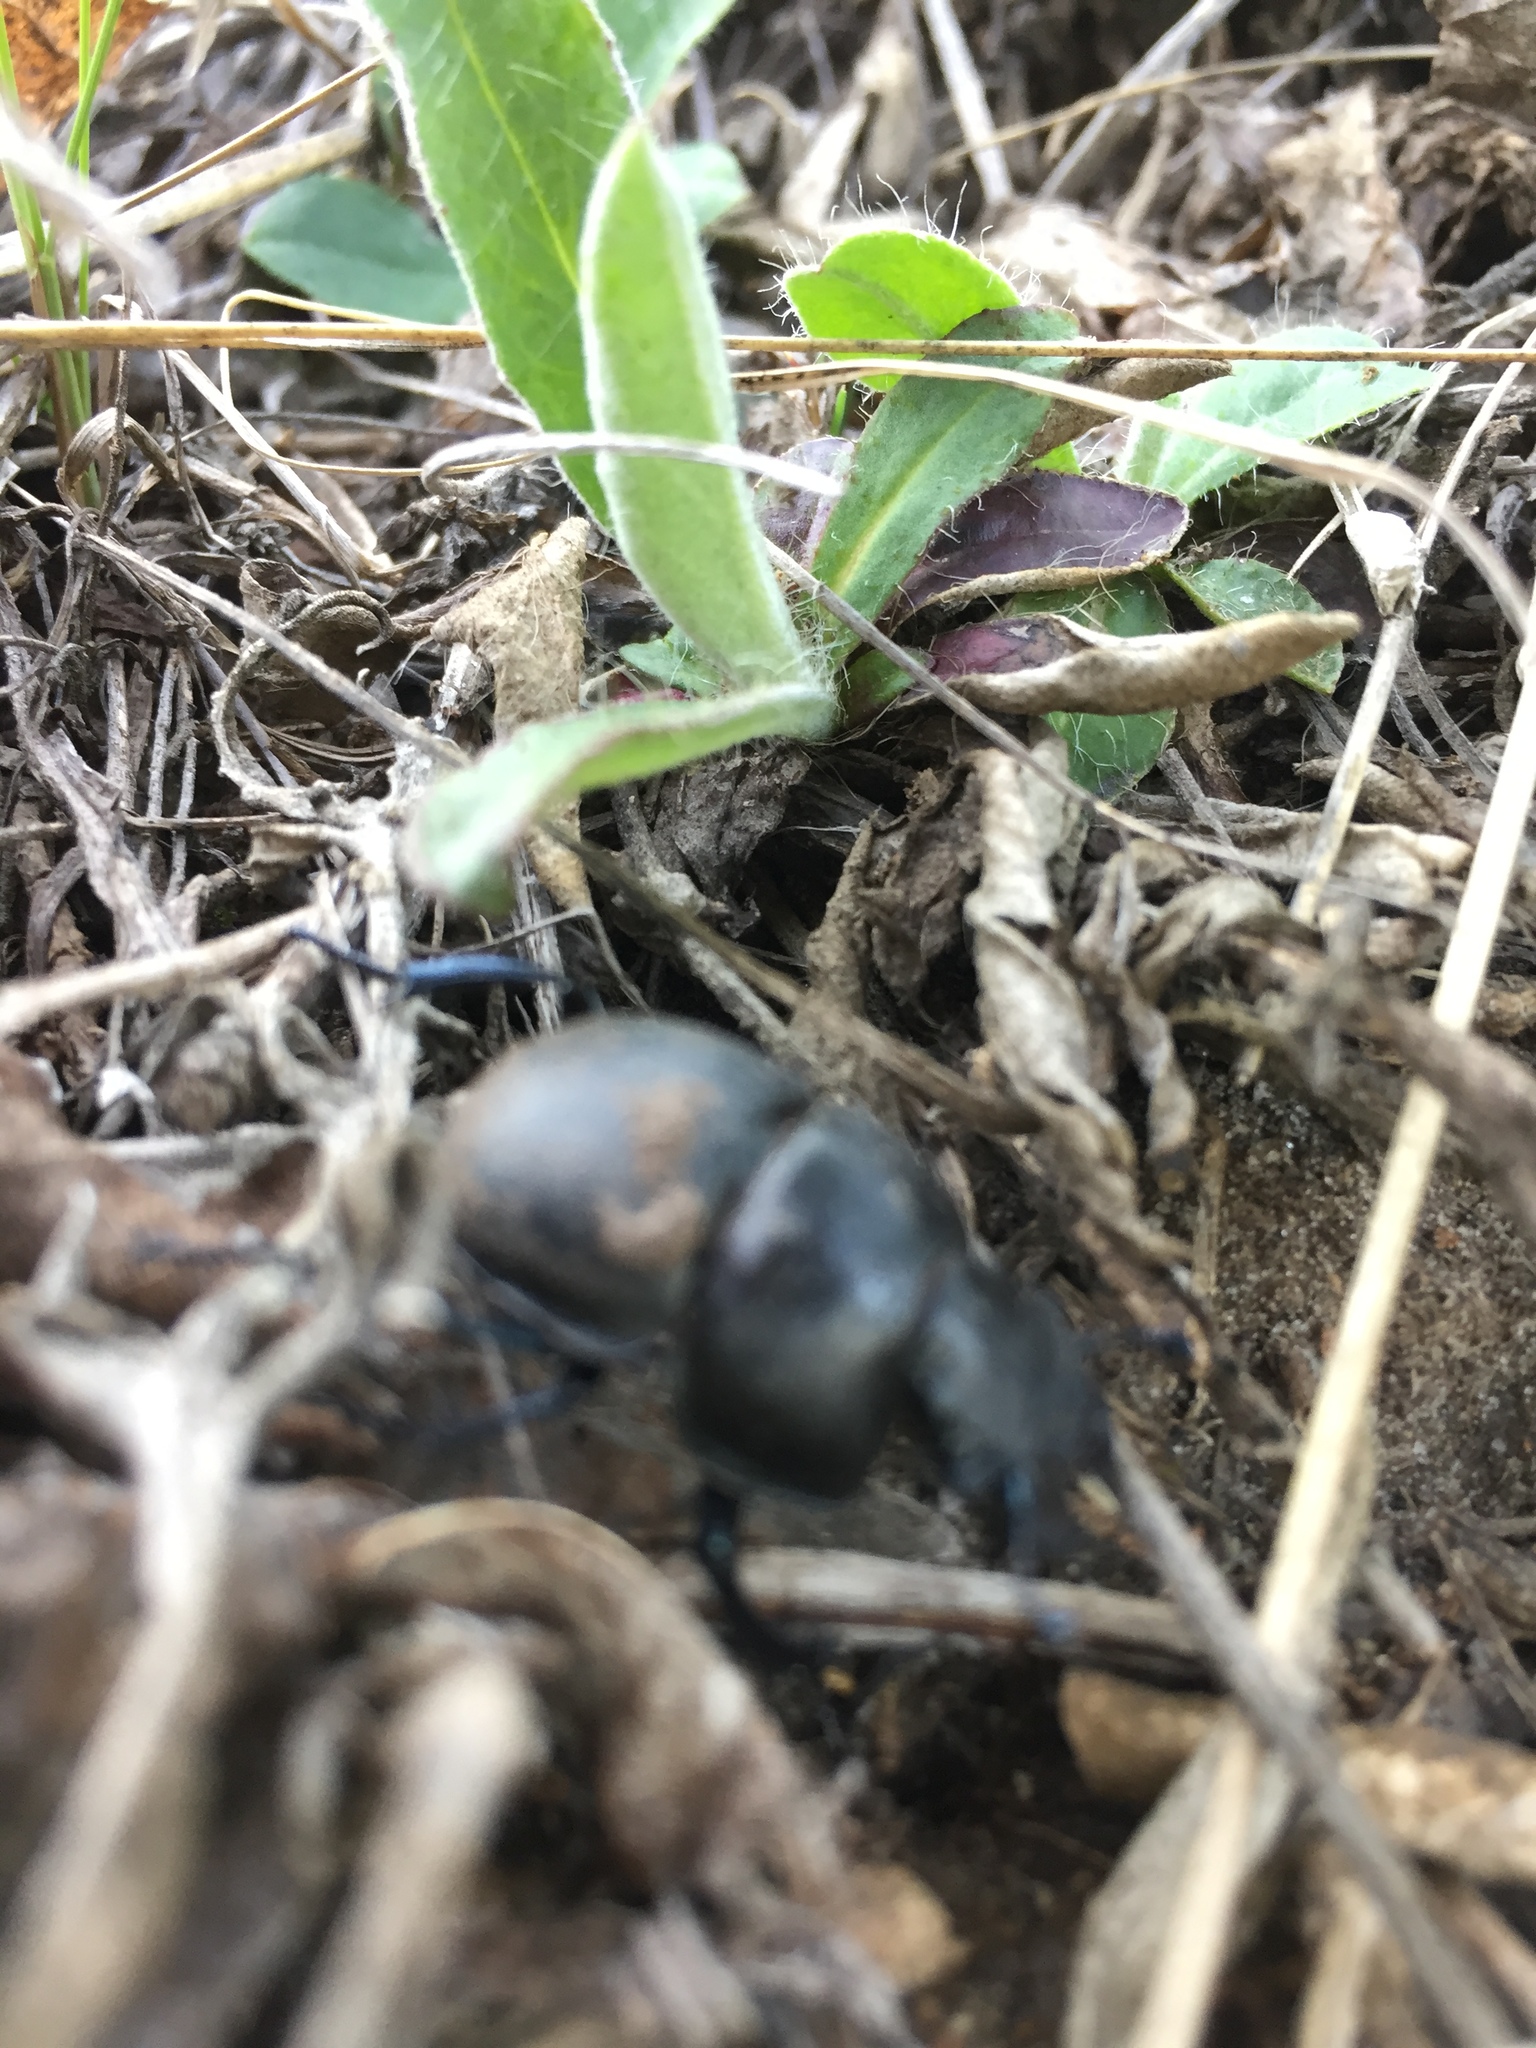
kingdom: Animalia
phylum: Arthropoda
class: Insecta
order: Coleoptera
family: Geotrupidae
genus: Lethrus
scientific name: Lethrus apterus
